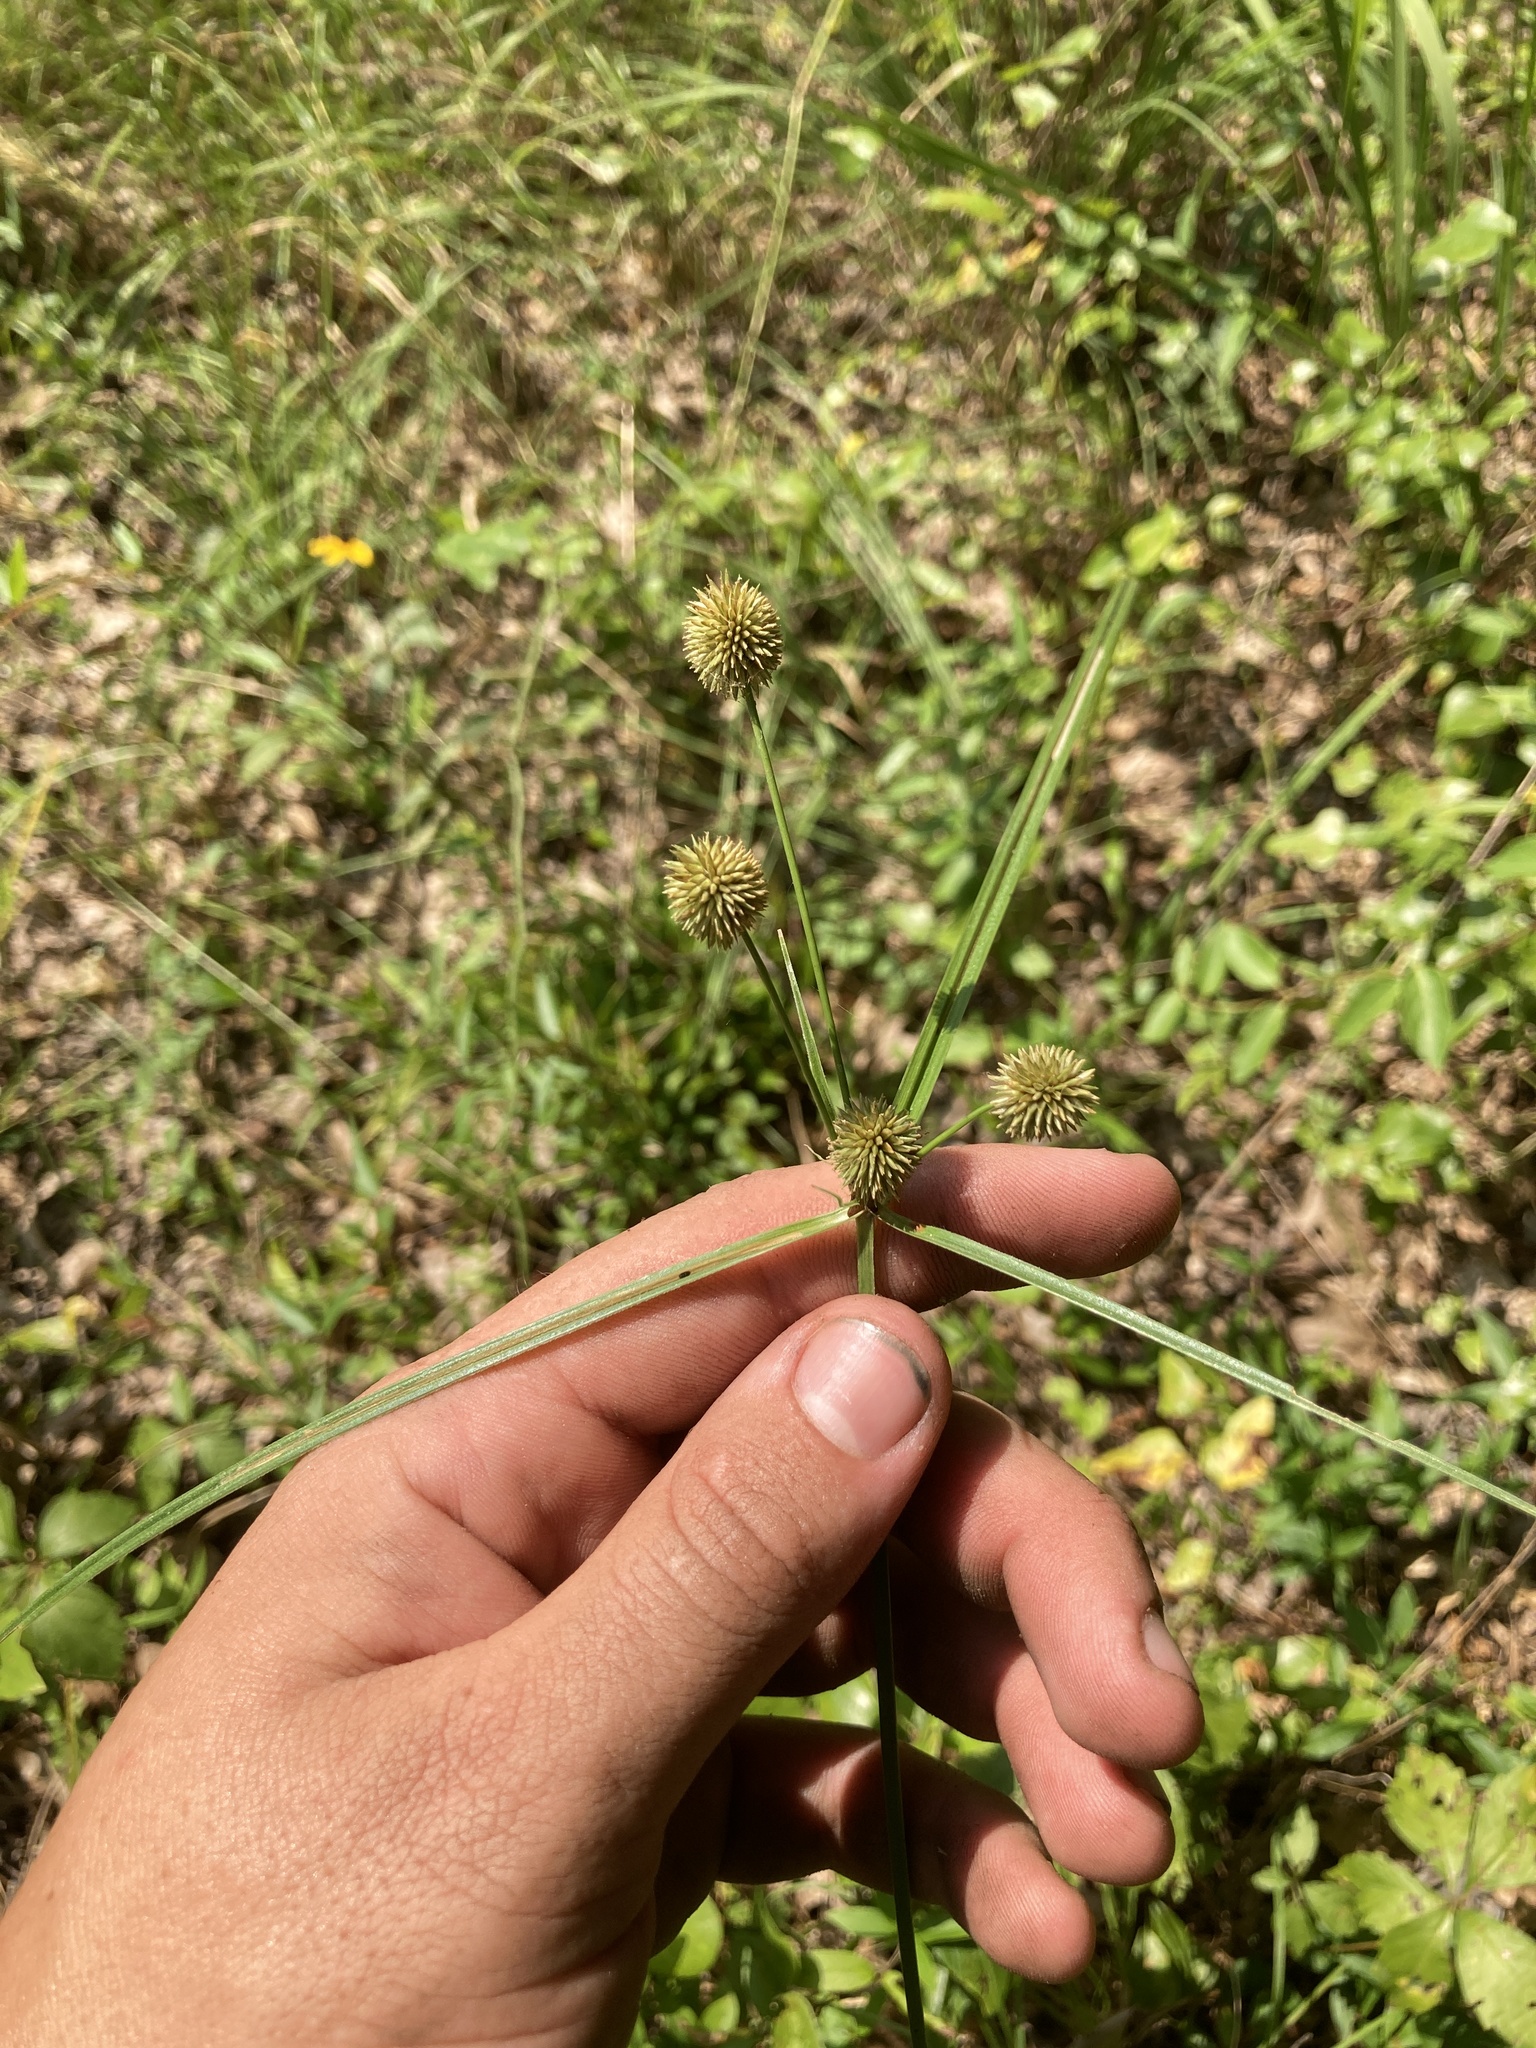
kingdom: Plantae
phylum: Tracheophyta
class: Liliopsida
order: Poales
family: Cyperaceae
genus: Cyperus
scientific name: Cyperus echinatus
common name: Teasel sedge
